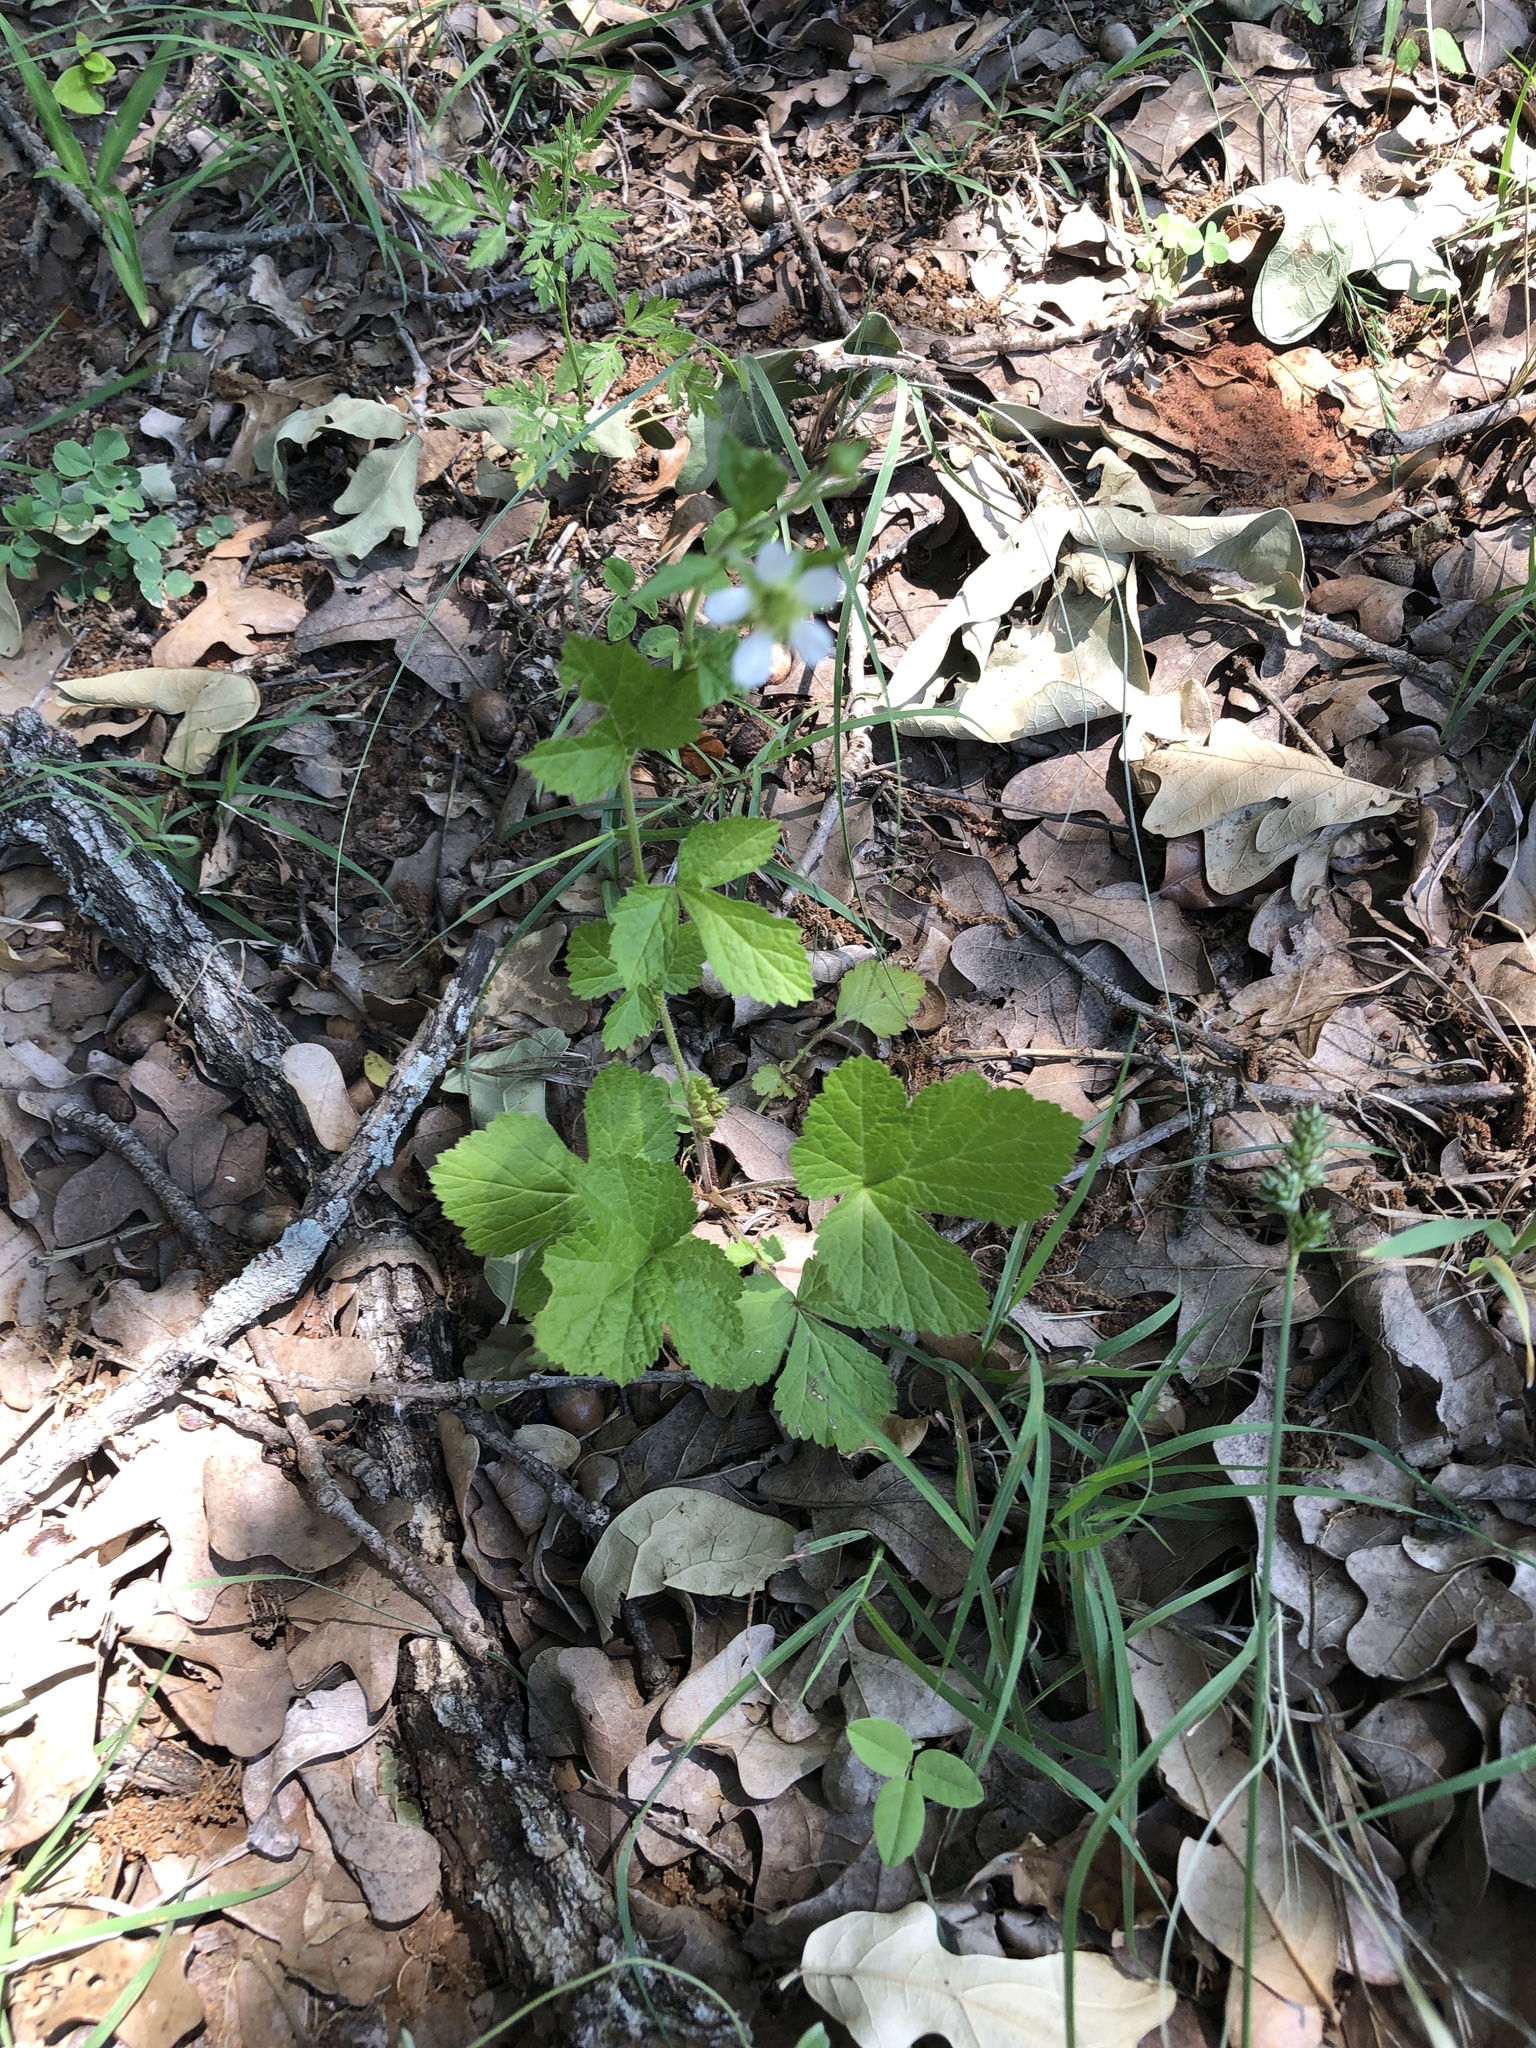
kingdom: Plantae
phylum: Tracheophyta
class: Magnoliopsida
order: Rosales
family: Rosaceae
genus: Geum
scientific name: Geum canadense
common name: White avens
